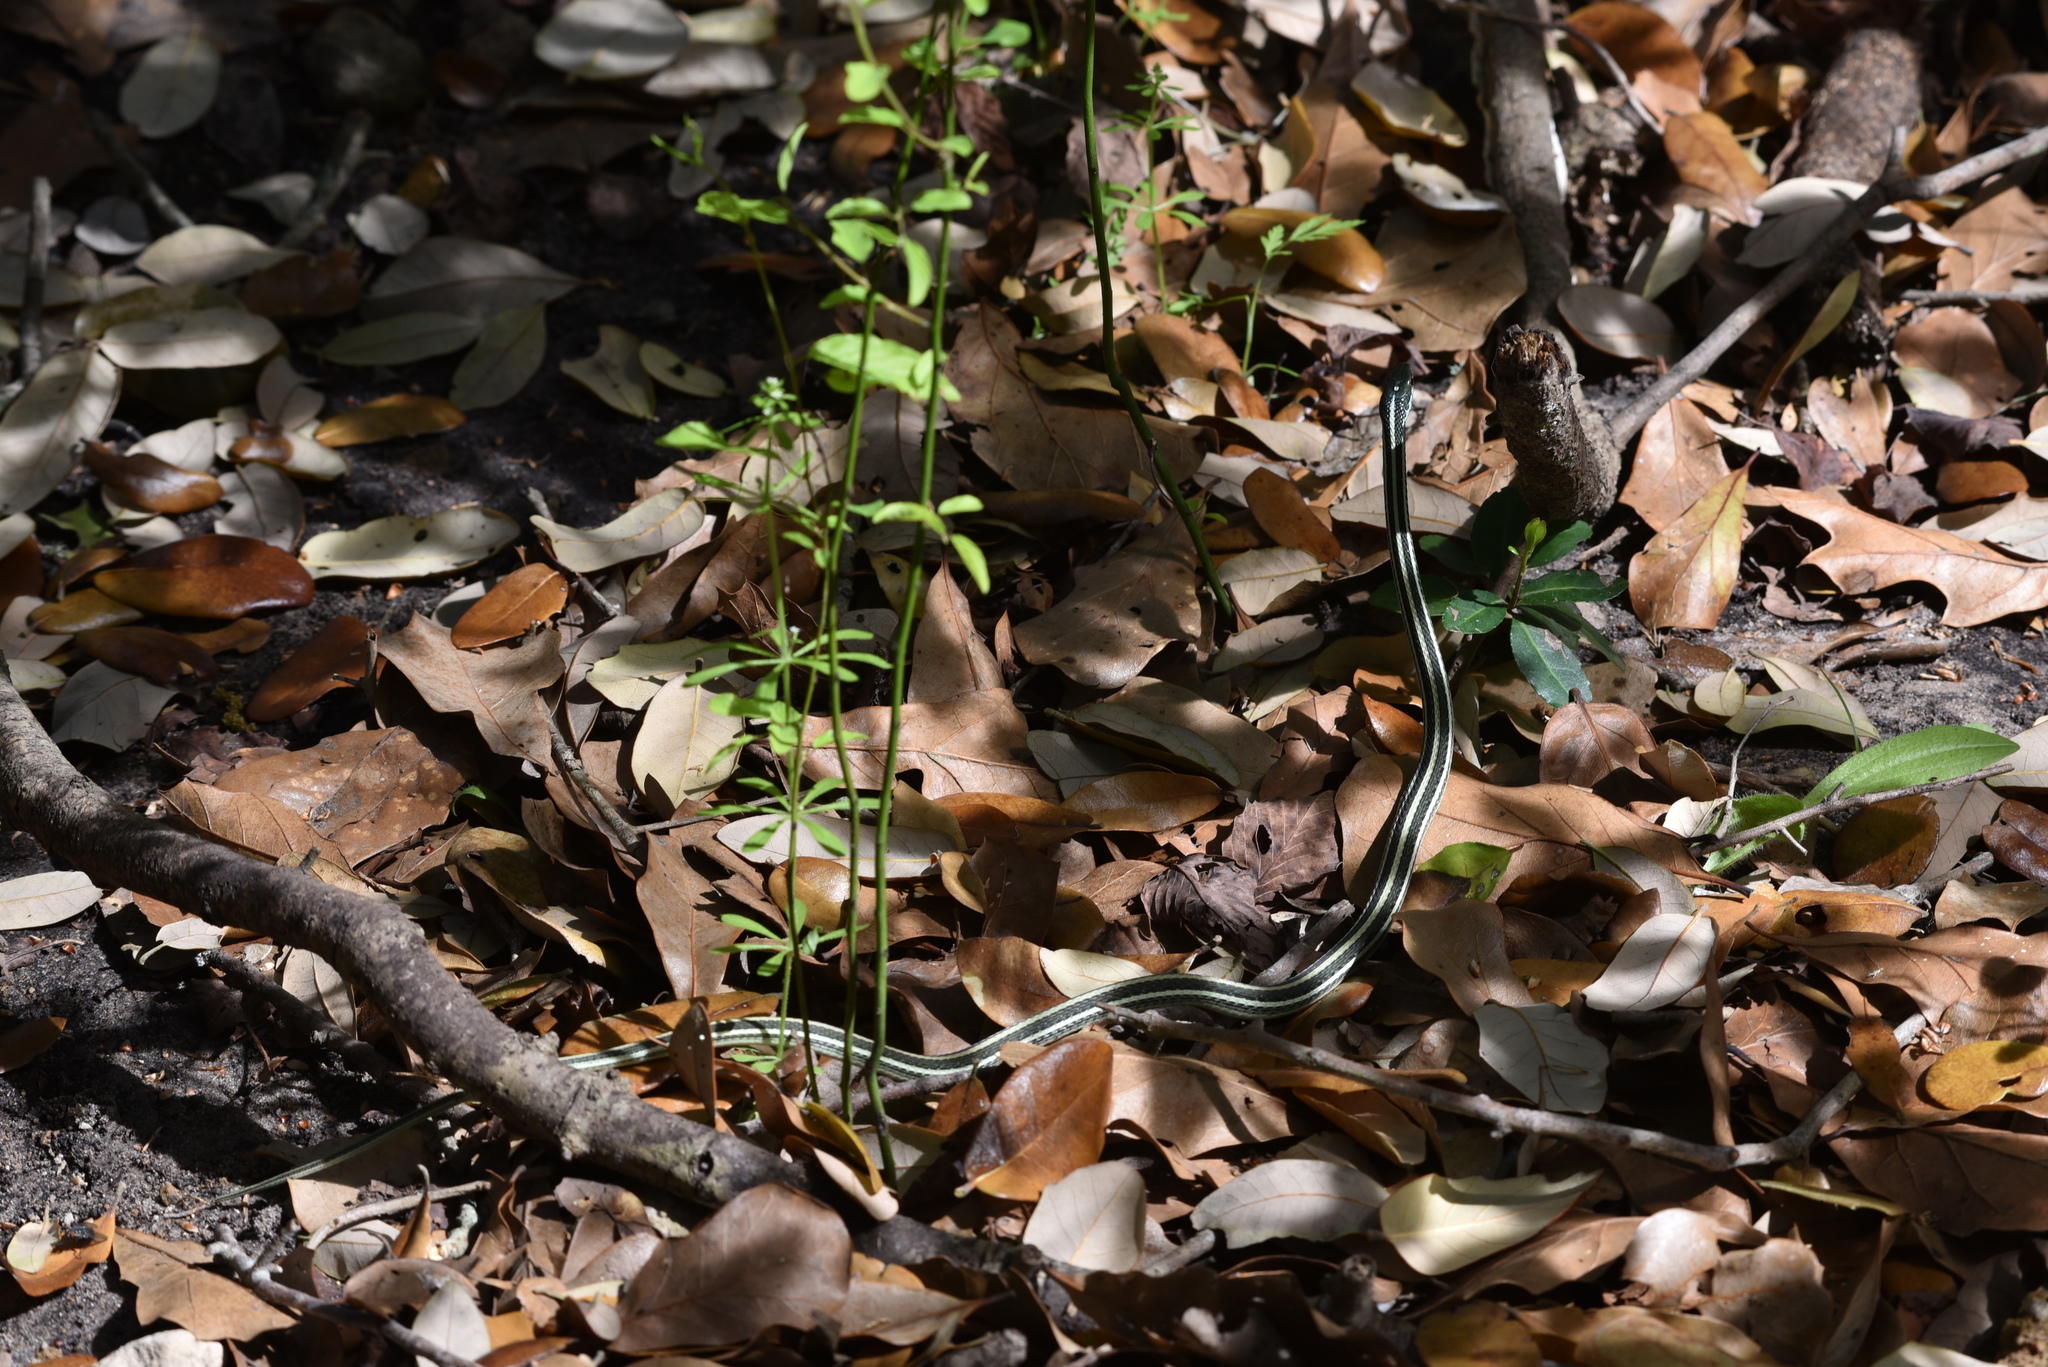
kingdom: Animalia
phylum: Chordata
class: Squamata
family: Colubridae
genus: Thamnophis
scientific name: Thamnophis proximus
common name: Western ribbon snake
